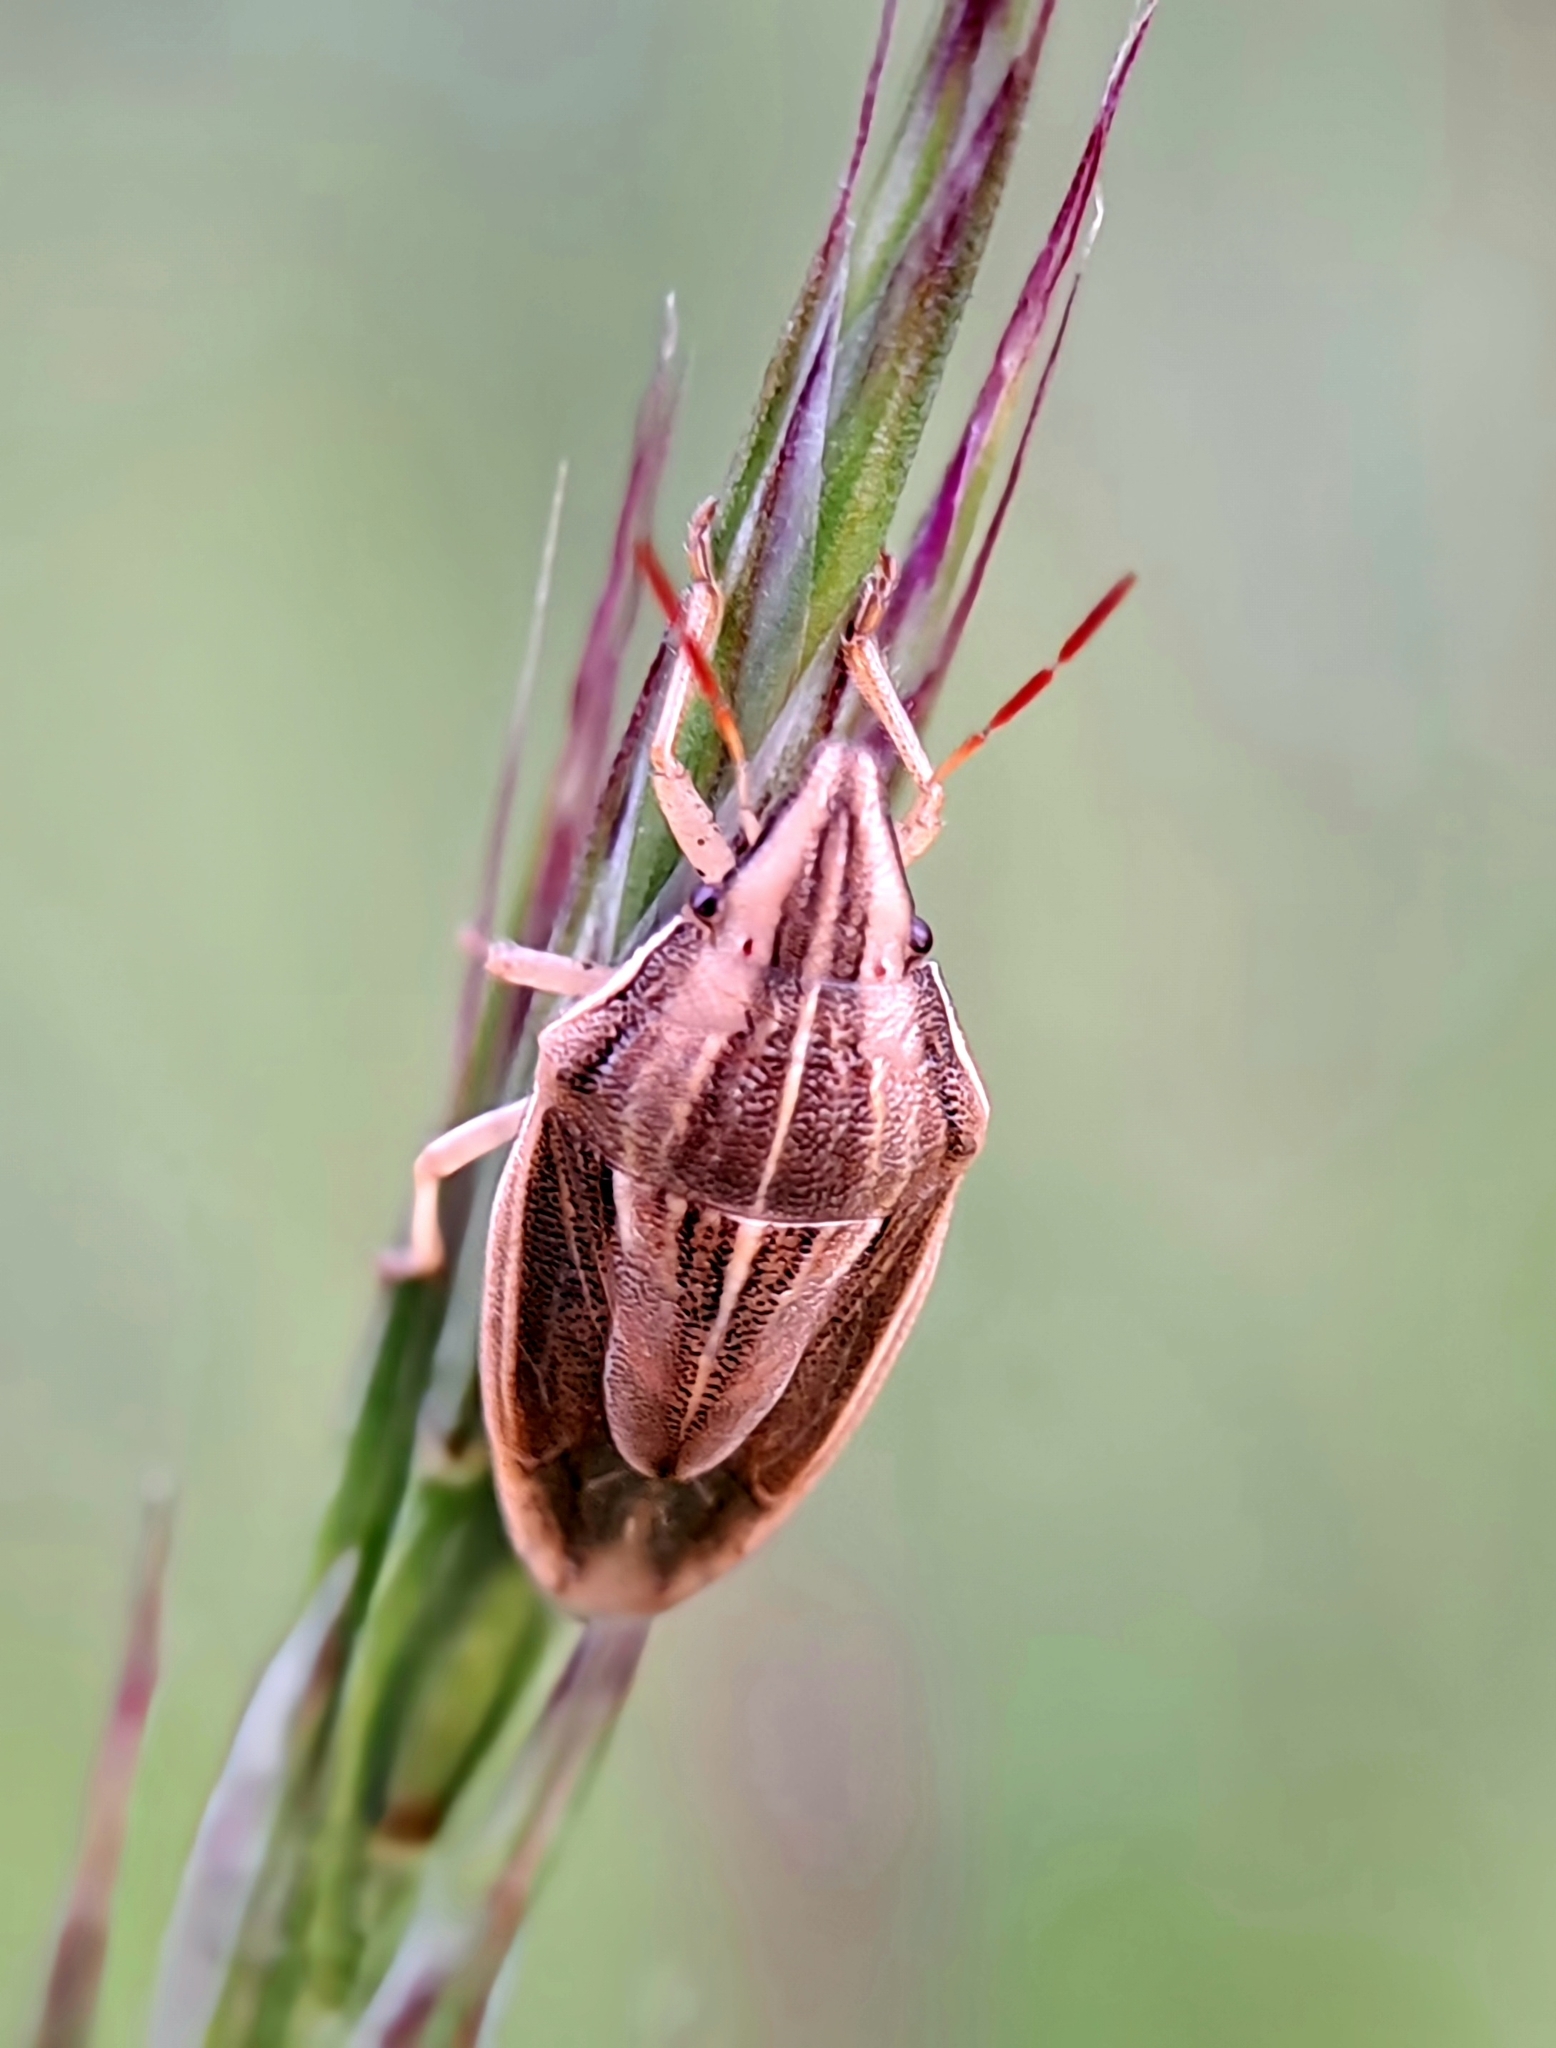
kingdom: Animalia
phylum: Arthropoda
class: Insecta
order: Hemiptera
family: Pentatomidae
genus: Aelia
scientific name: Aelia acuminata
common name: Bishop's mitre
